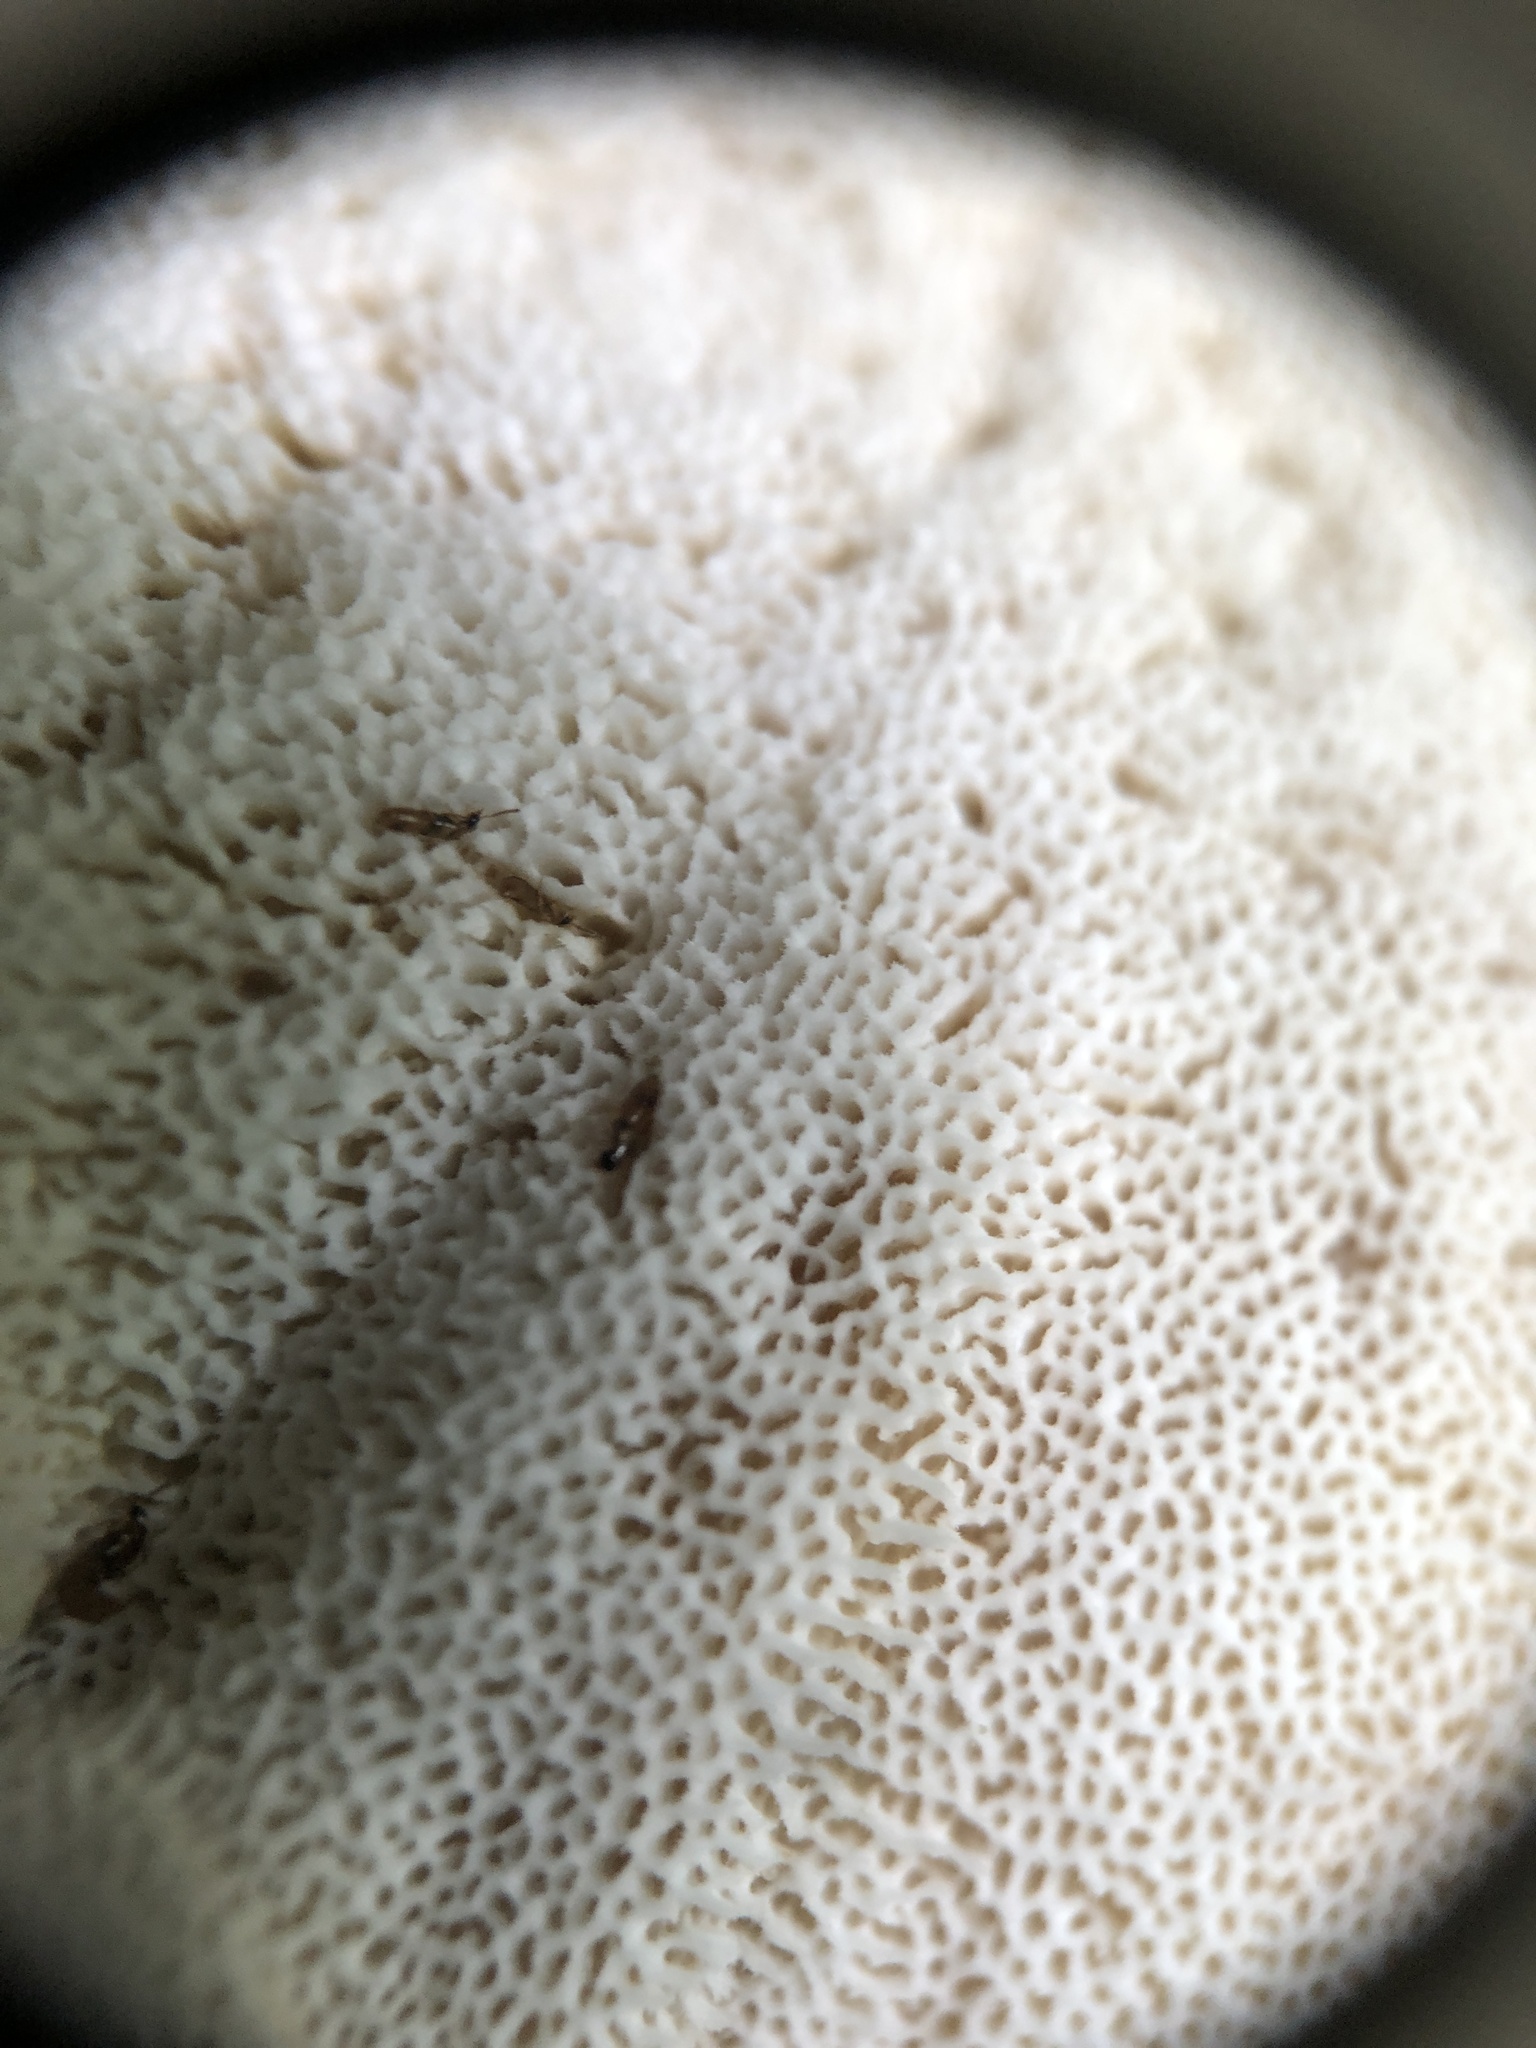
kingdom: Fungi
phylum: Basidiomycota
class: Agaricomycetes
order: Russulales
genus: Laeticutis
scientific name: Laeticutis cristata
